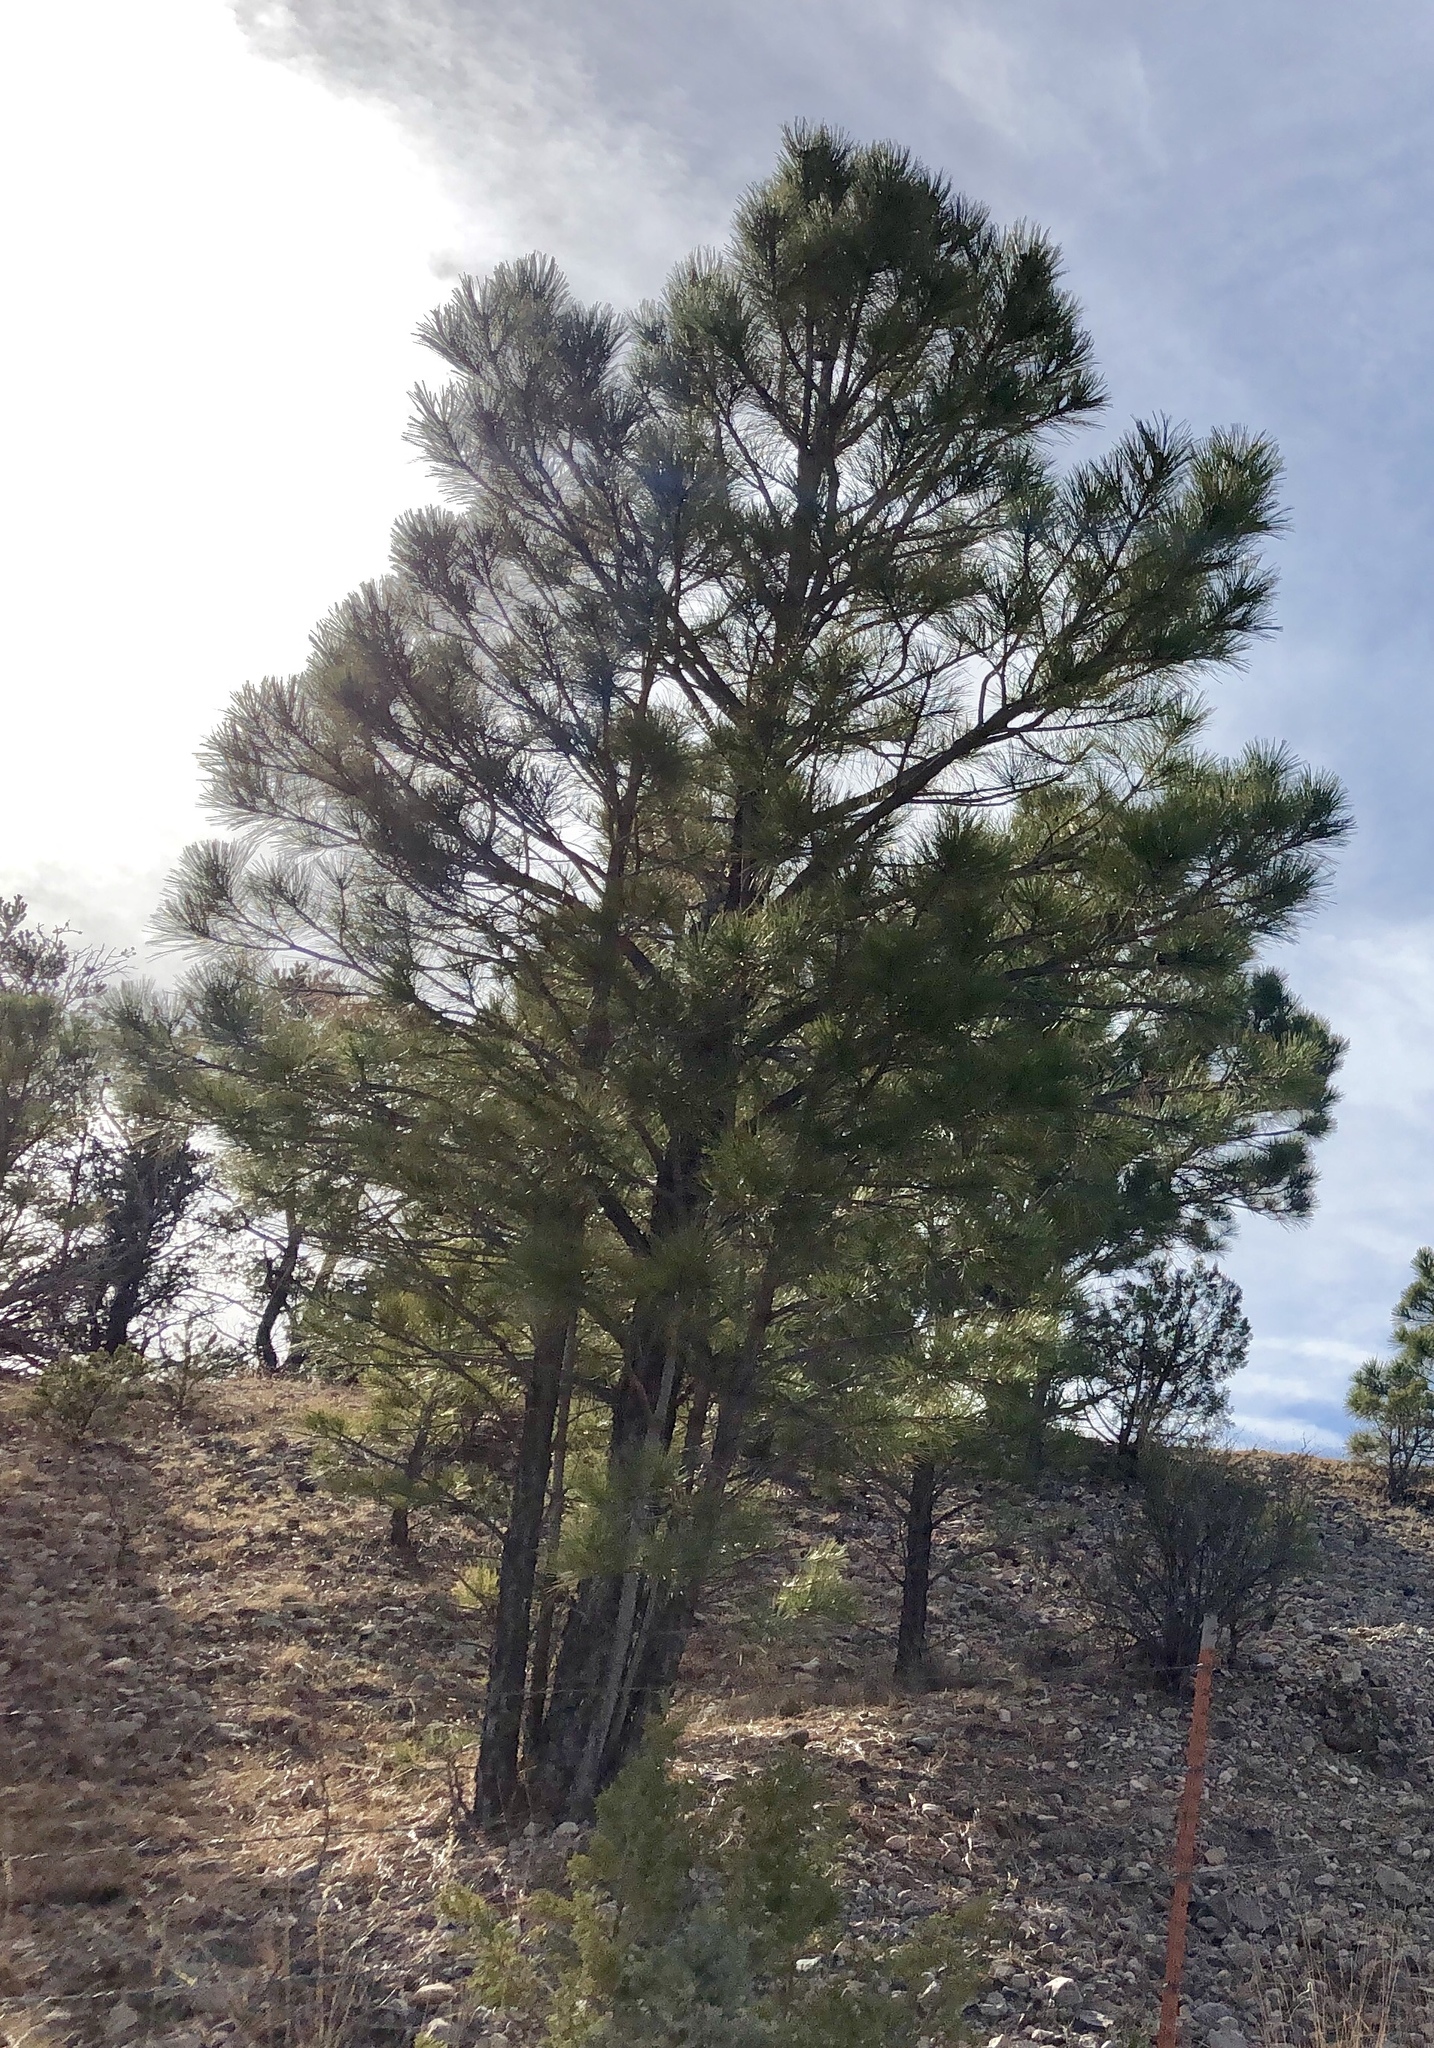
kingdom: Plantae
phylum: Tracheophyta
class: Pinopsida
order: Pinales
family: Pinaceae
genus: Pinus
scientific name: Pinus ponderosa
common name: Western yellow-pine
